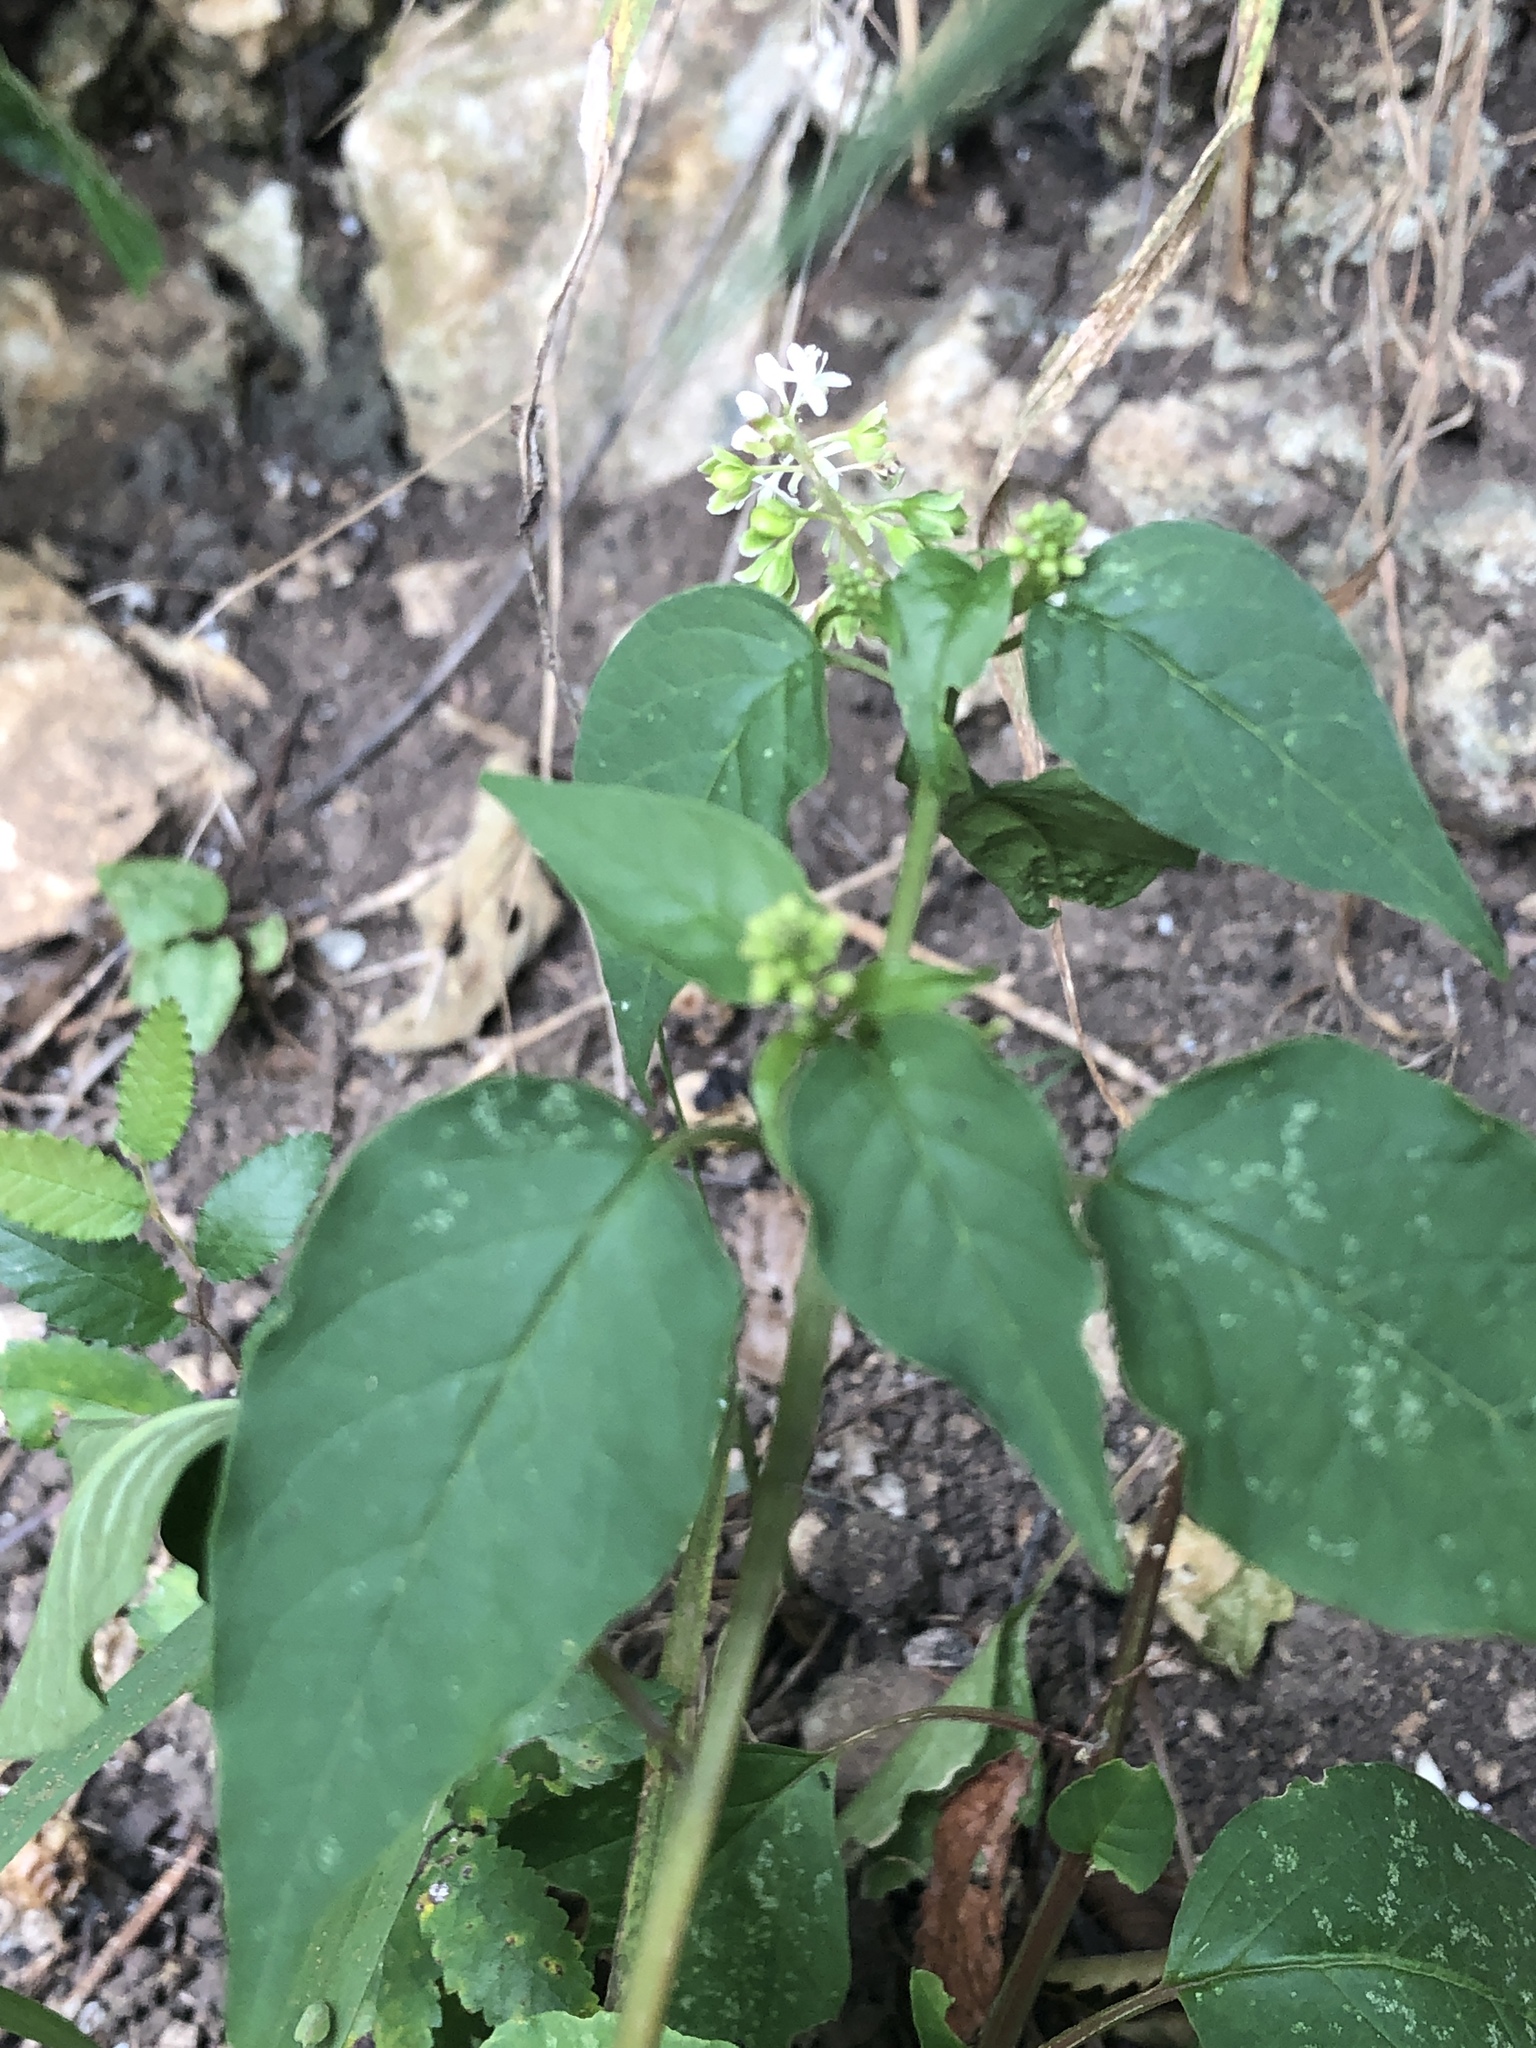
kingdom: Plantae
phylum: Tracheophyta
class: Magnoliopsida
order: Caryophyllales
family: Phytolaccaceae
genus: Rivina
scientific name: Rivina humilis
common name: Rougeplant
